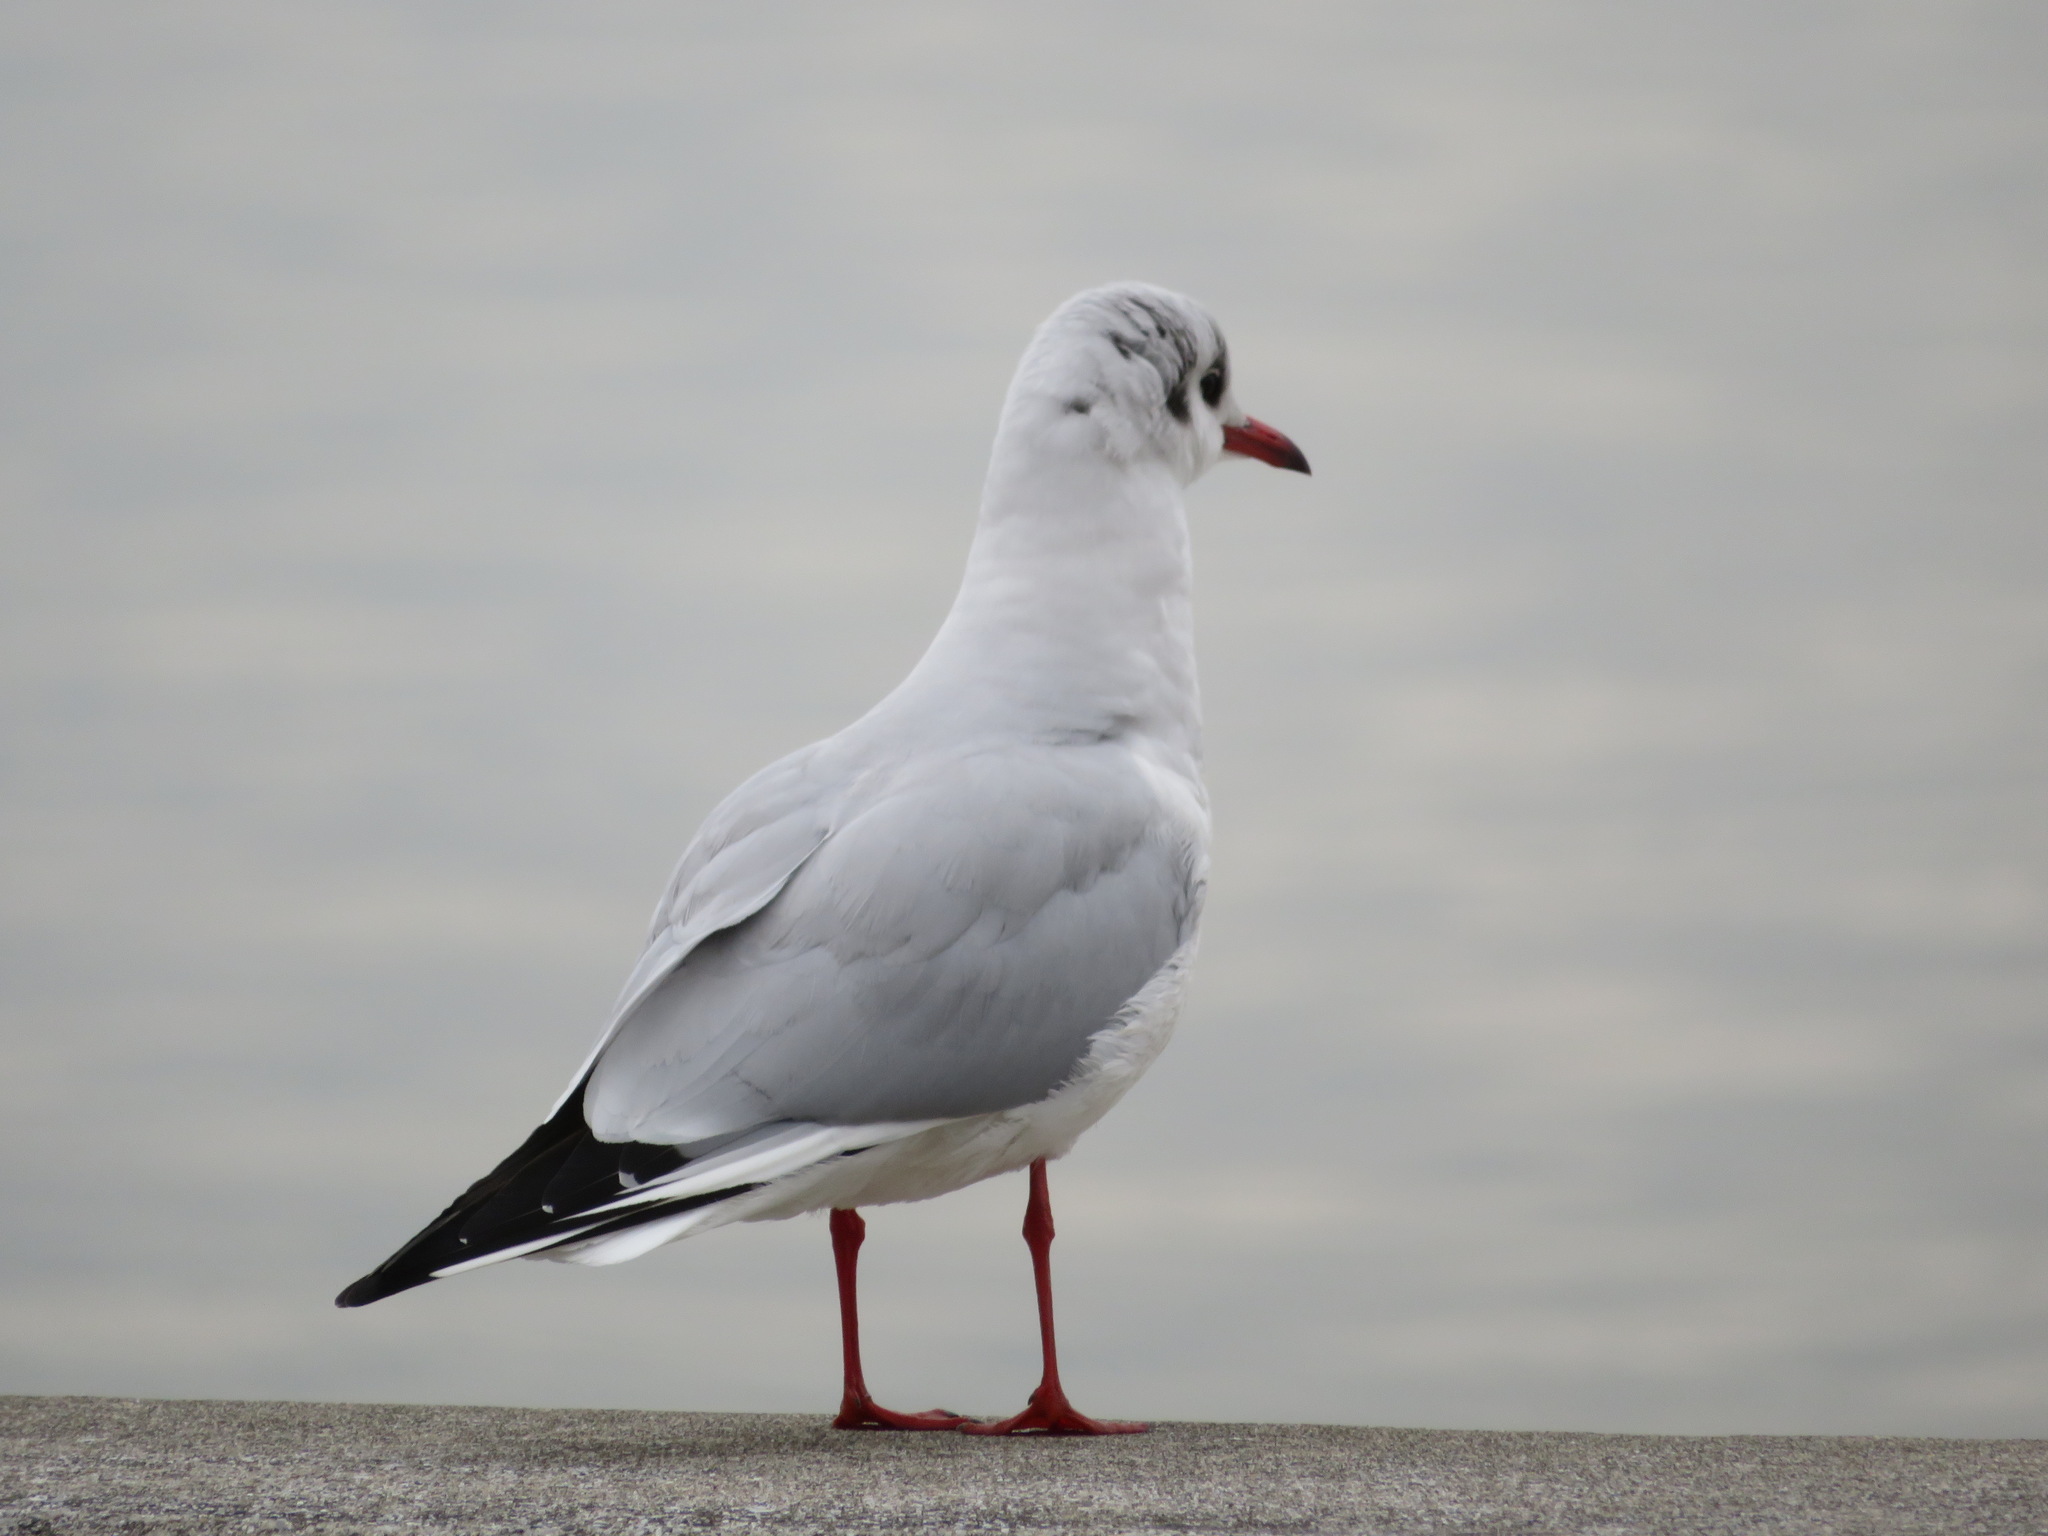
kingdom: Animalia
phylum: Chordata
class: Aves
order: Charadriiformes
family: Laridae
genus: Chroicocephalus
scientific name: Chroicocephalus ridibundus
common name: Black-headed gull
